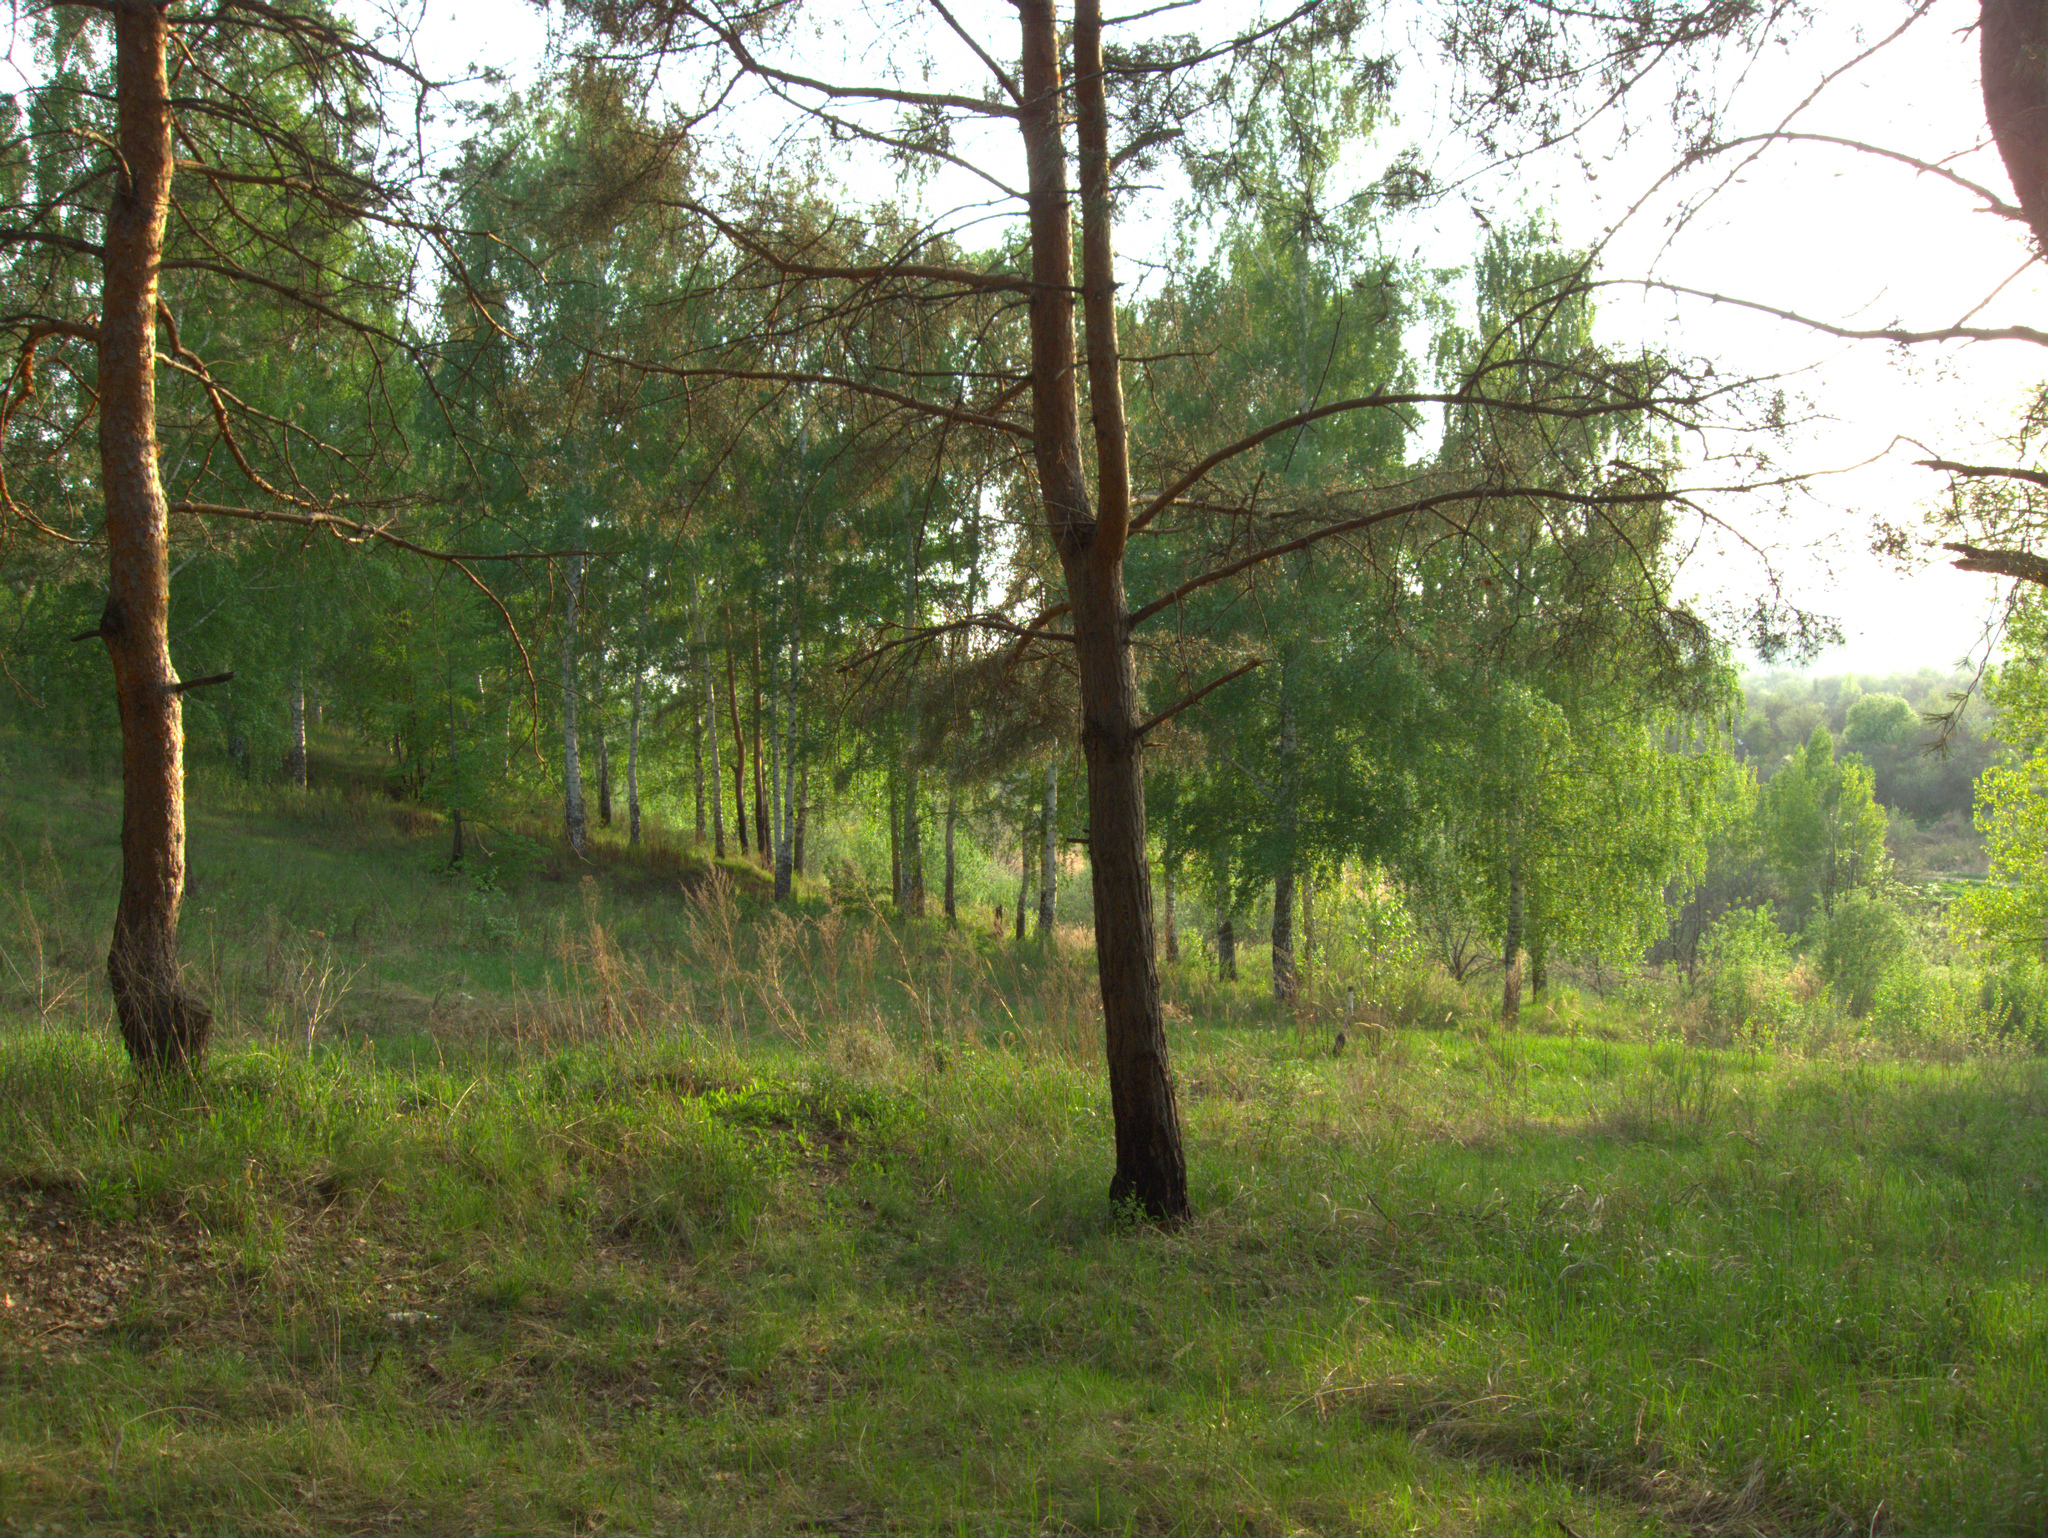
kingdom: Plantae
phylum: Tracheophyta
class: Pinopsida
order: Pinales
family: Pinaceae
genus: Pinus
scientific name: Pinus sylvestris
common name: Scots pine
